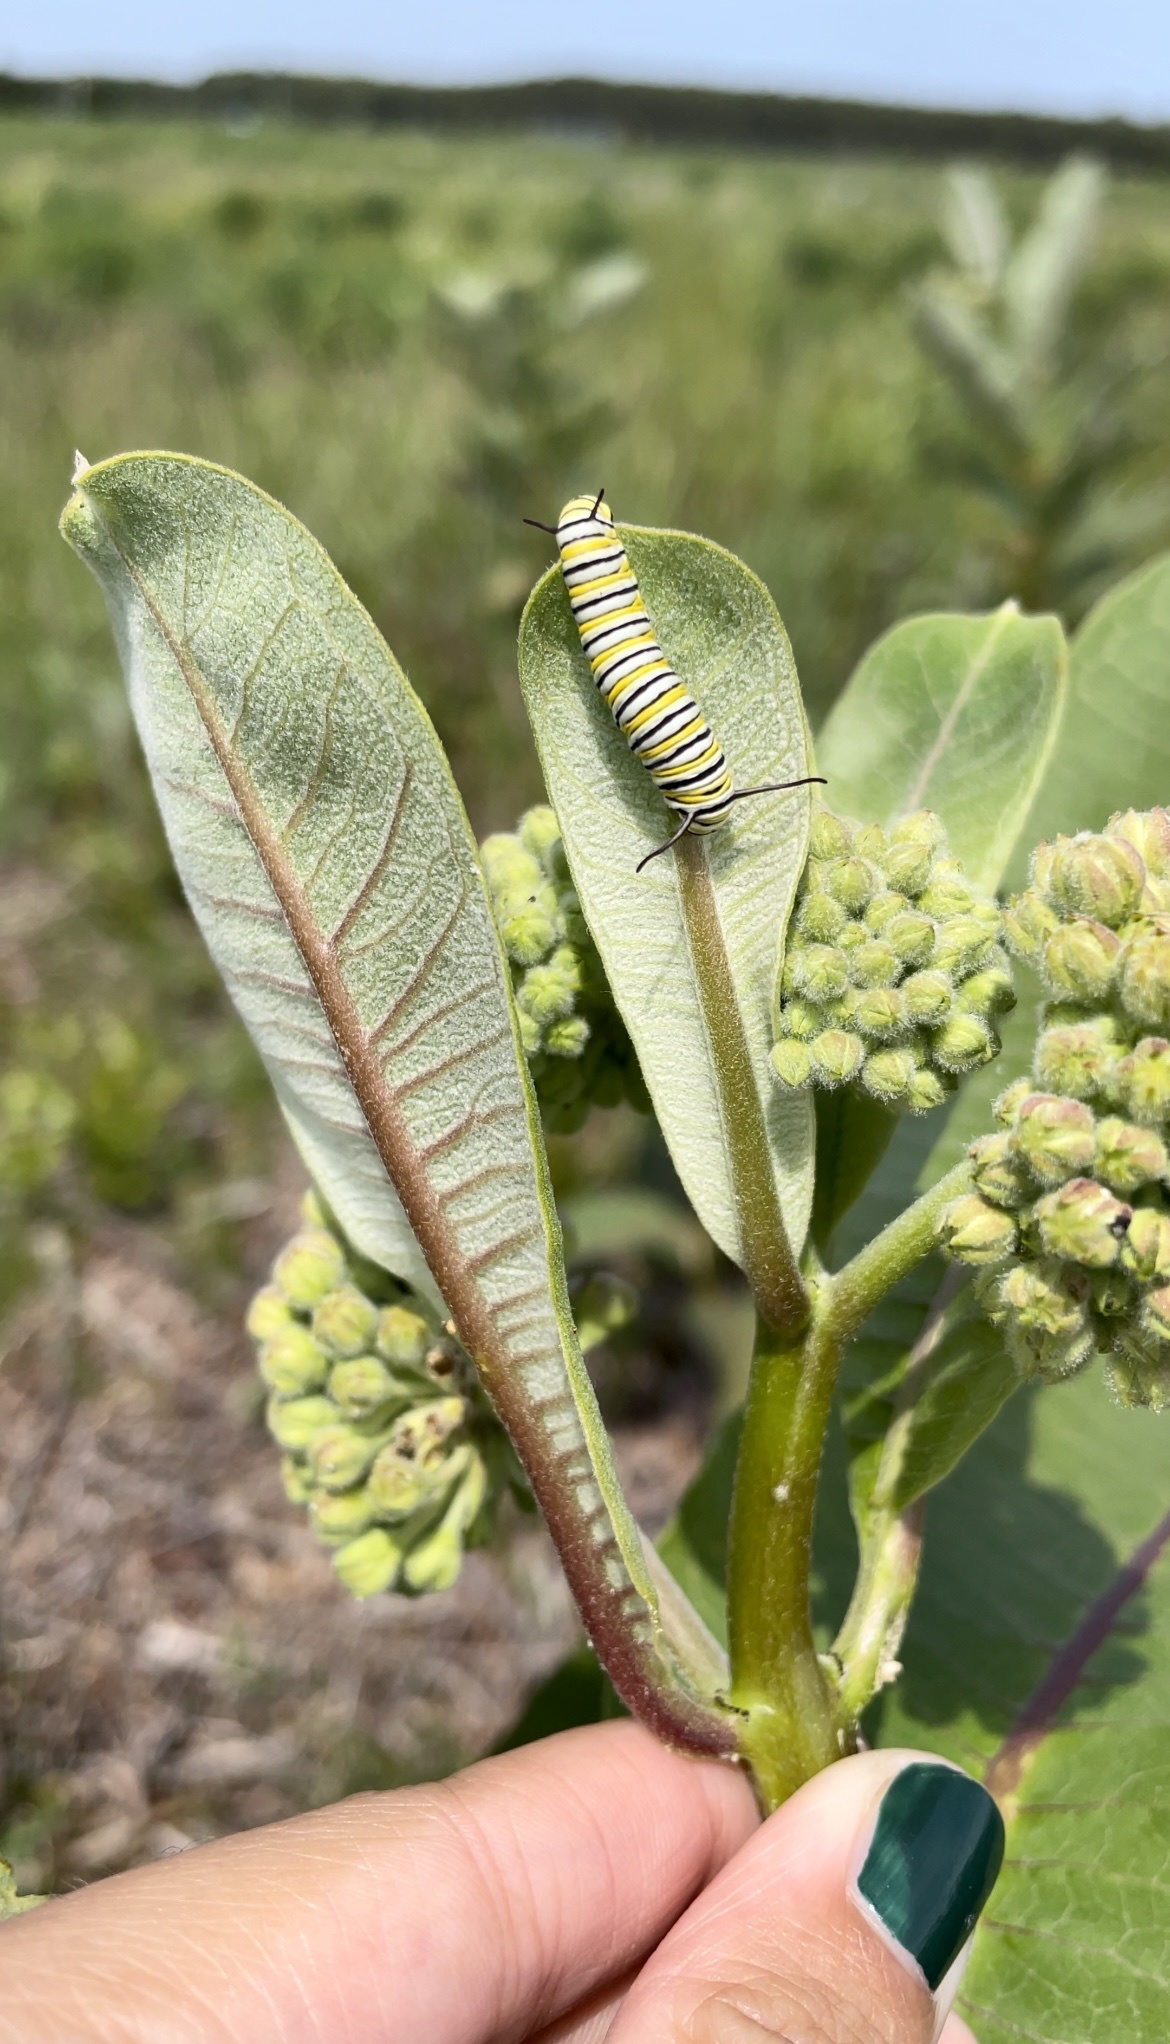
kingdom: Animalia
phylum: Arthropoda
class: Insecta
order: Lepidoptera
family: Nymphalidae
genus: Danaus
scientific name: Danaus plexippus
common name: Monarch
